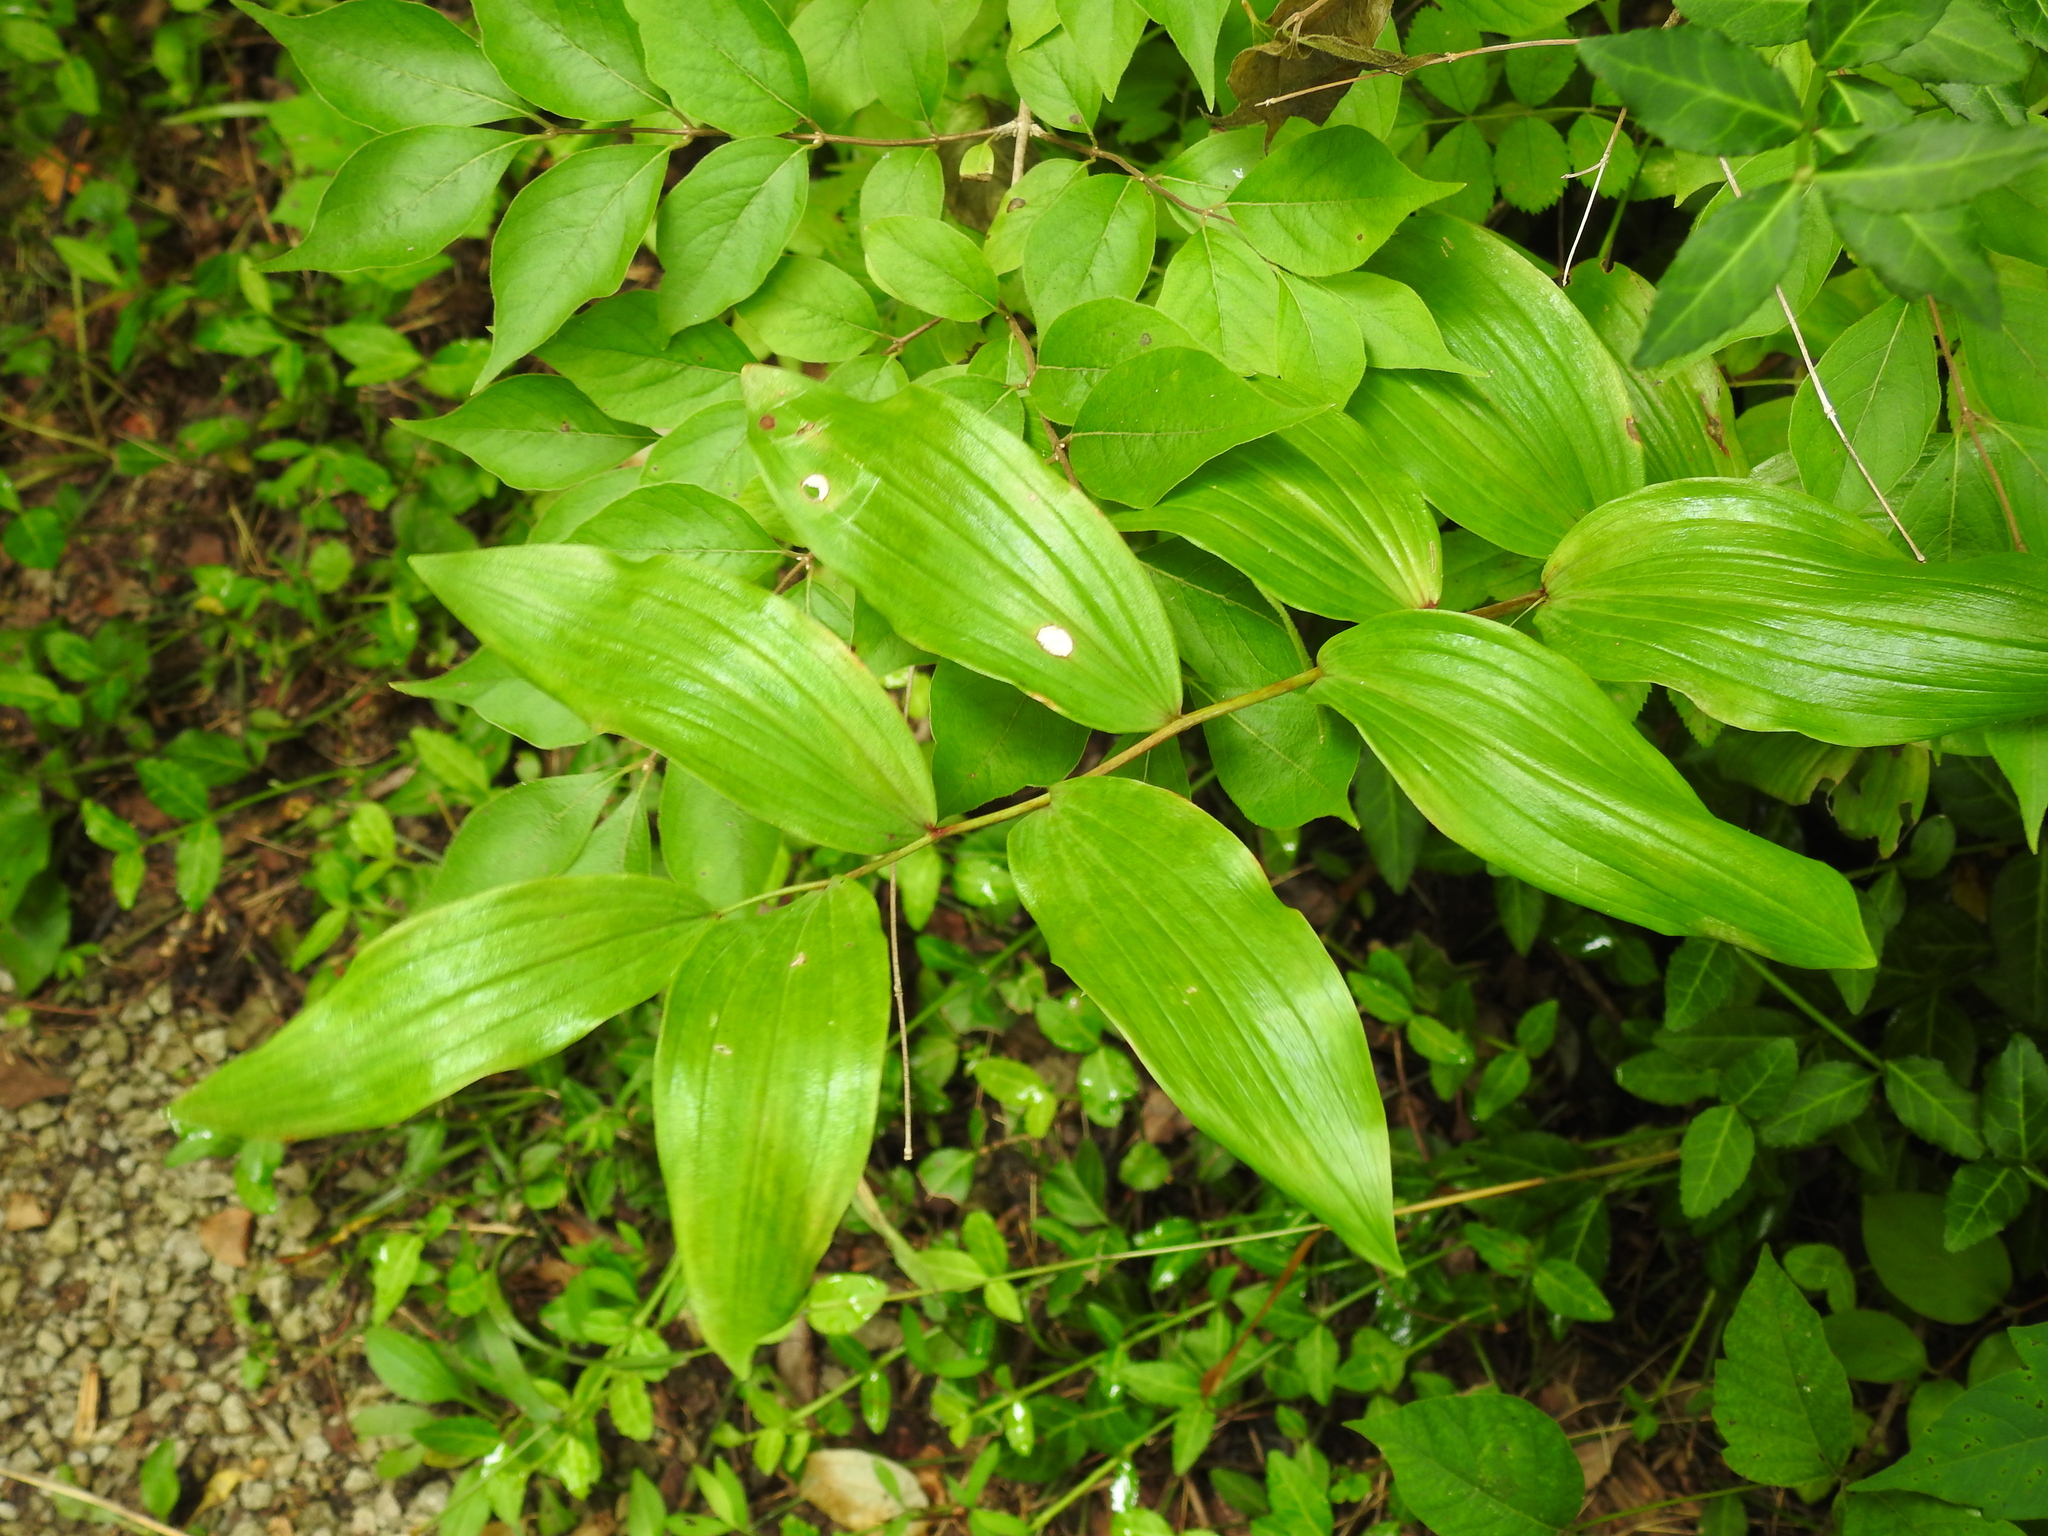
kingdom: Plantae
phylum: Tracheophyta
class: Liliopsida
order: Asparagales
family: Asparagaceae
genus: Polygonatum
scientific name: Polygonatum biflorum
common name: American solomon's-seal
